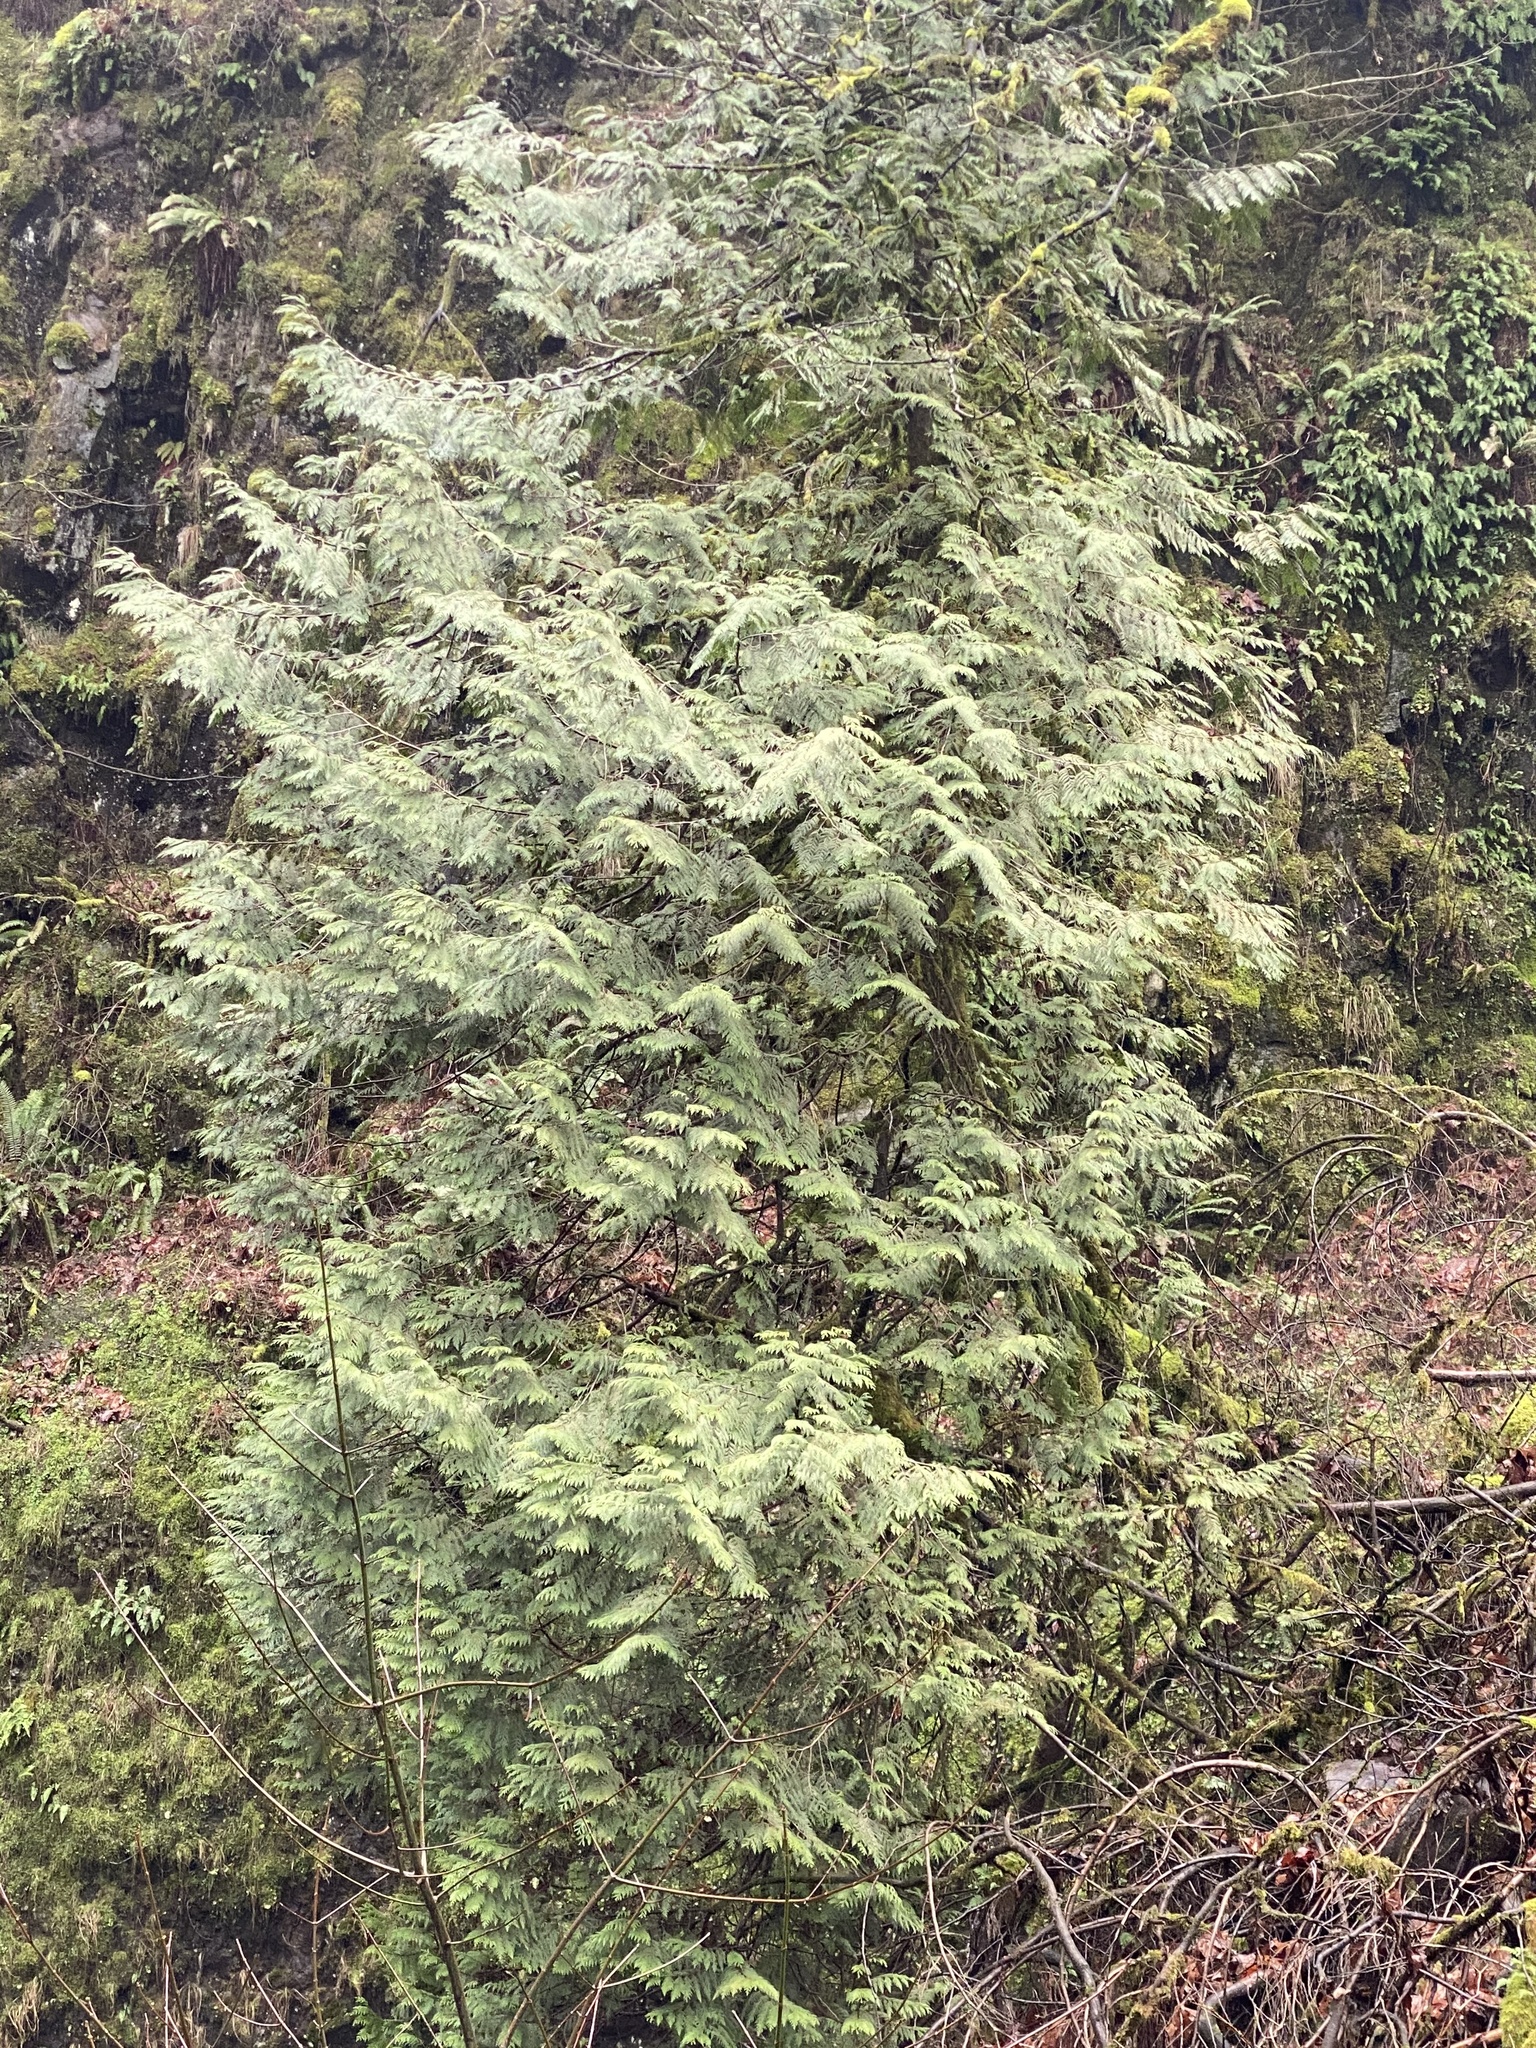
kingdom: Plantae
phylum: Tracheophyta
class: Pinopsida
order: Pinales
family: Cupressaceae
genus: Thuja
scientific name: Thuja plicata
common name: Western red-cedar
